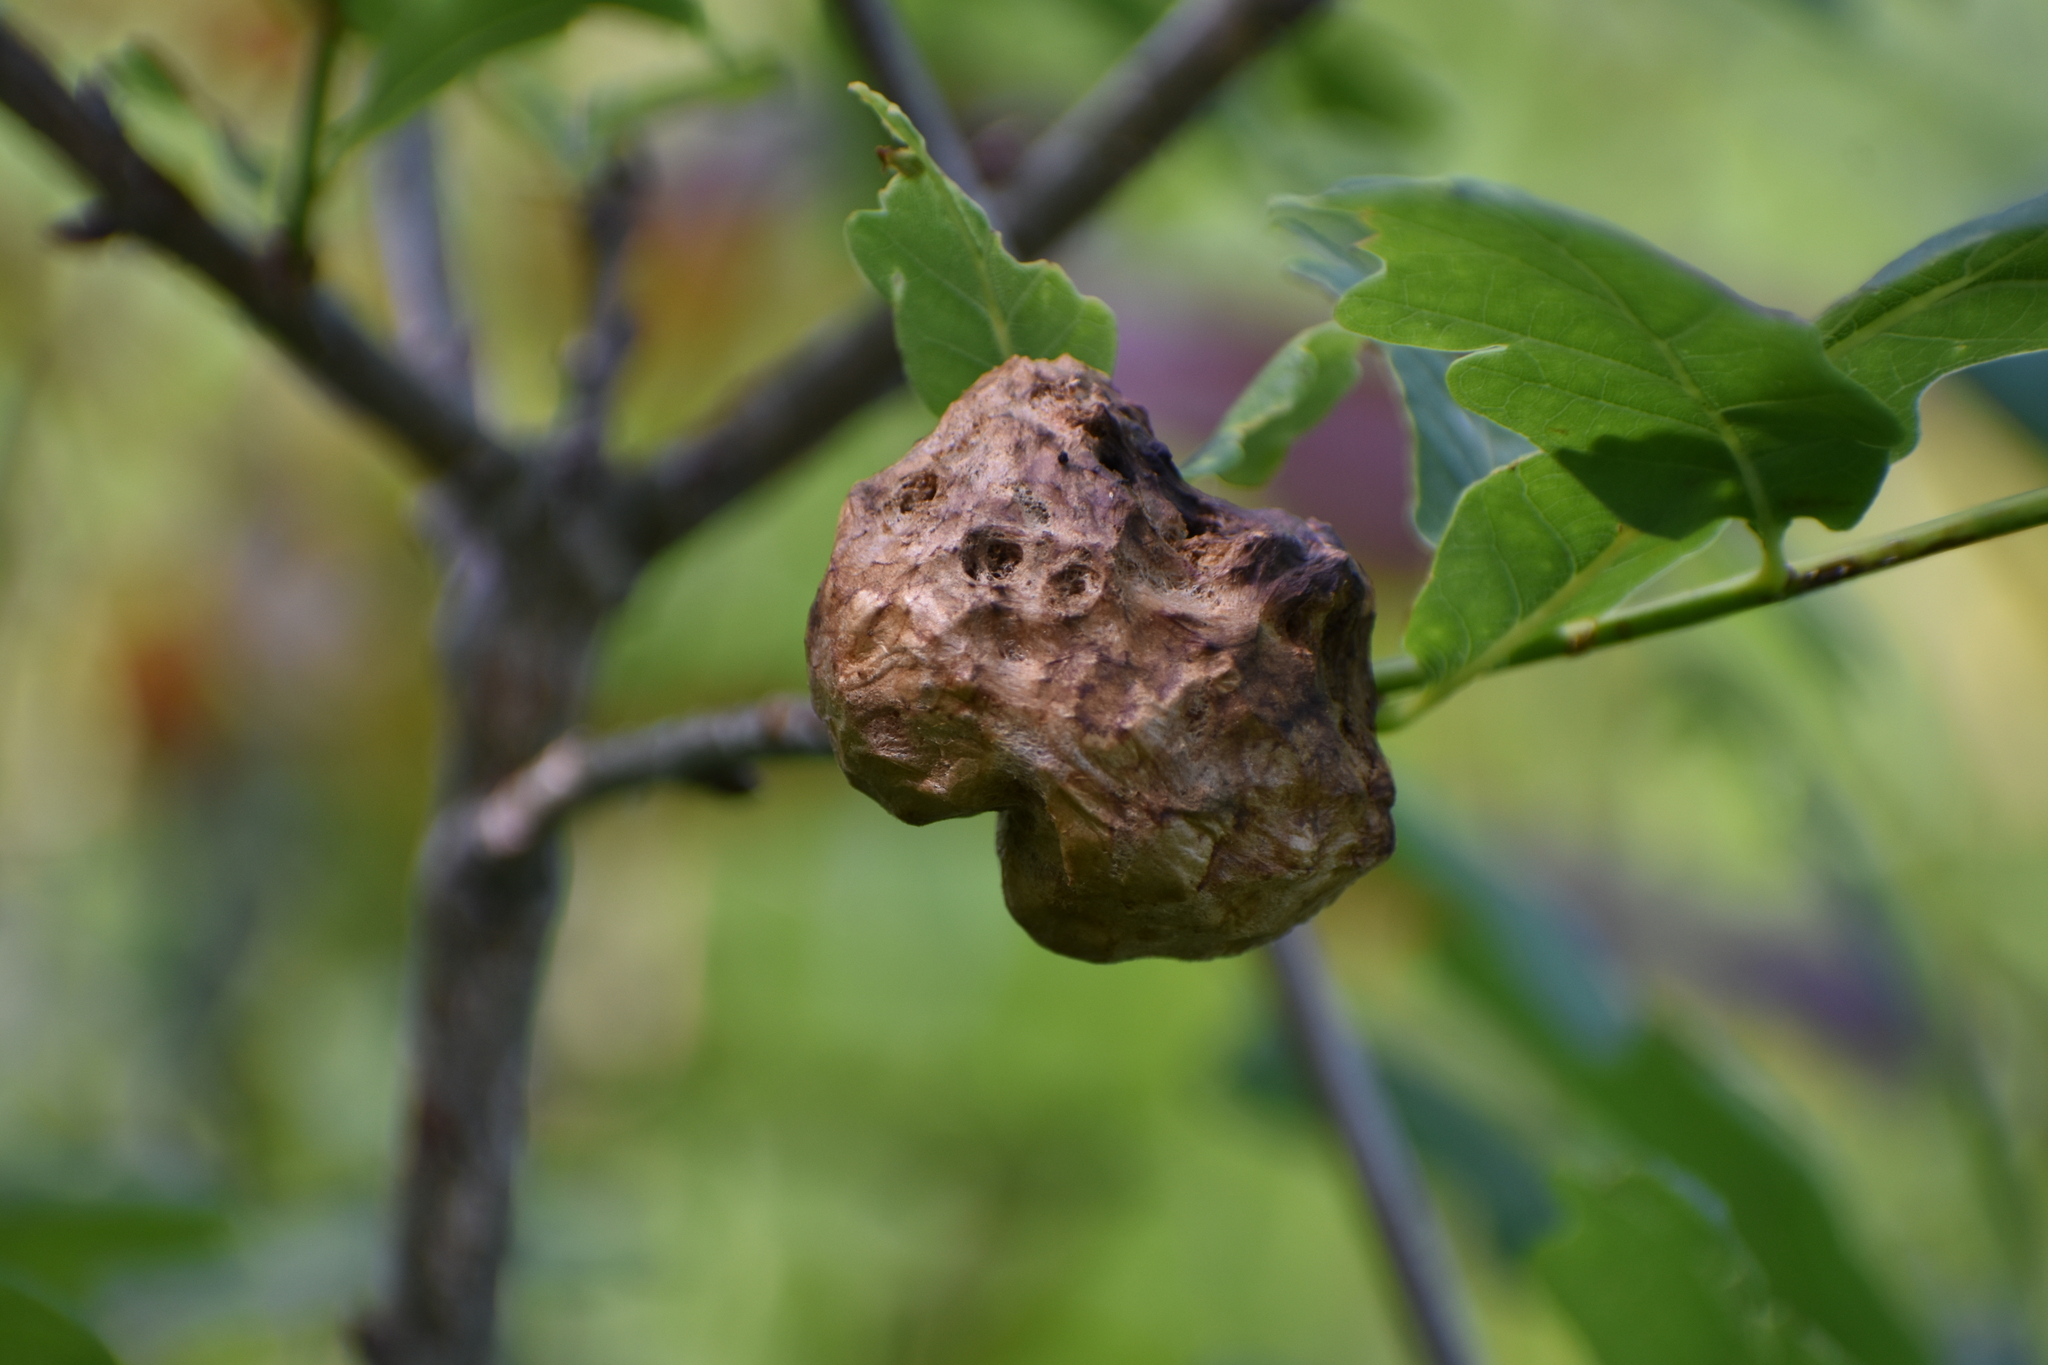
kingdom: Animalia
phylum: Arthropoda
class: Insecta
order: Hymenoptera
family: Cynipidae
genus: Biorhiza
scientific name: Biorhiza pallida
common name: Oak apple
